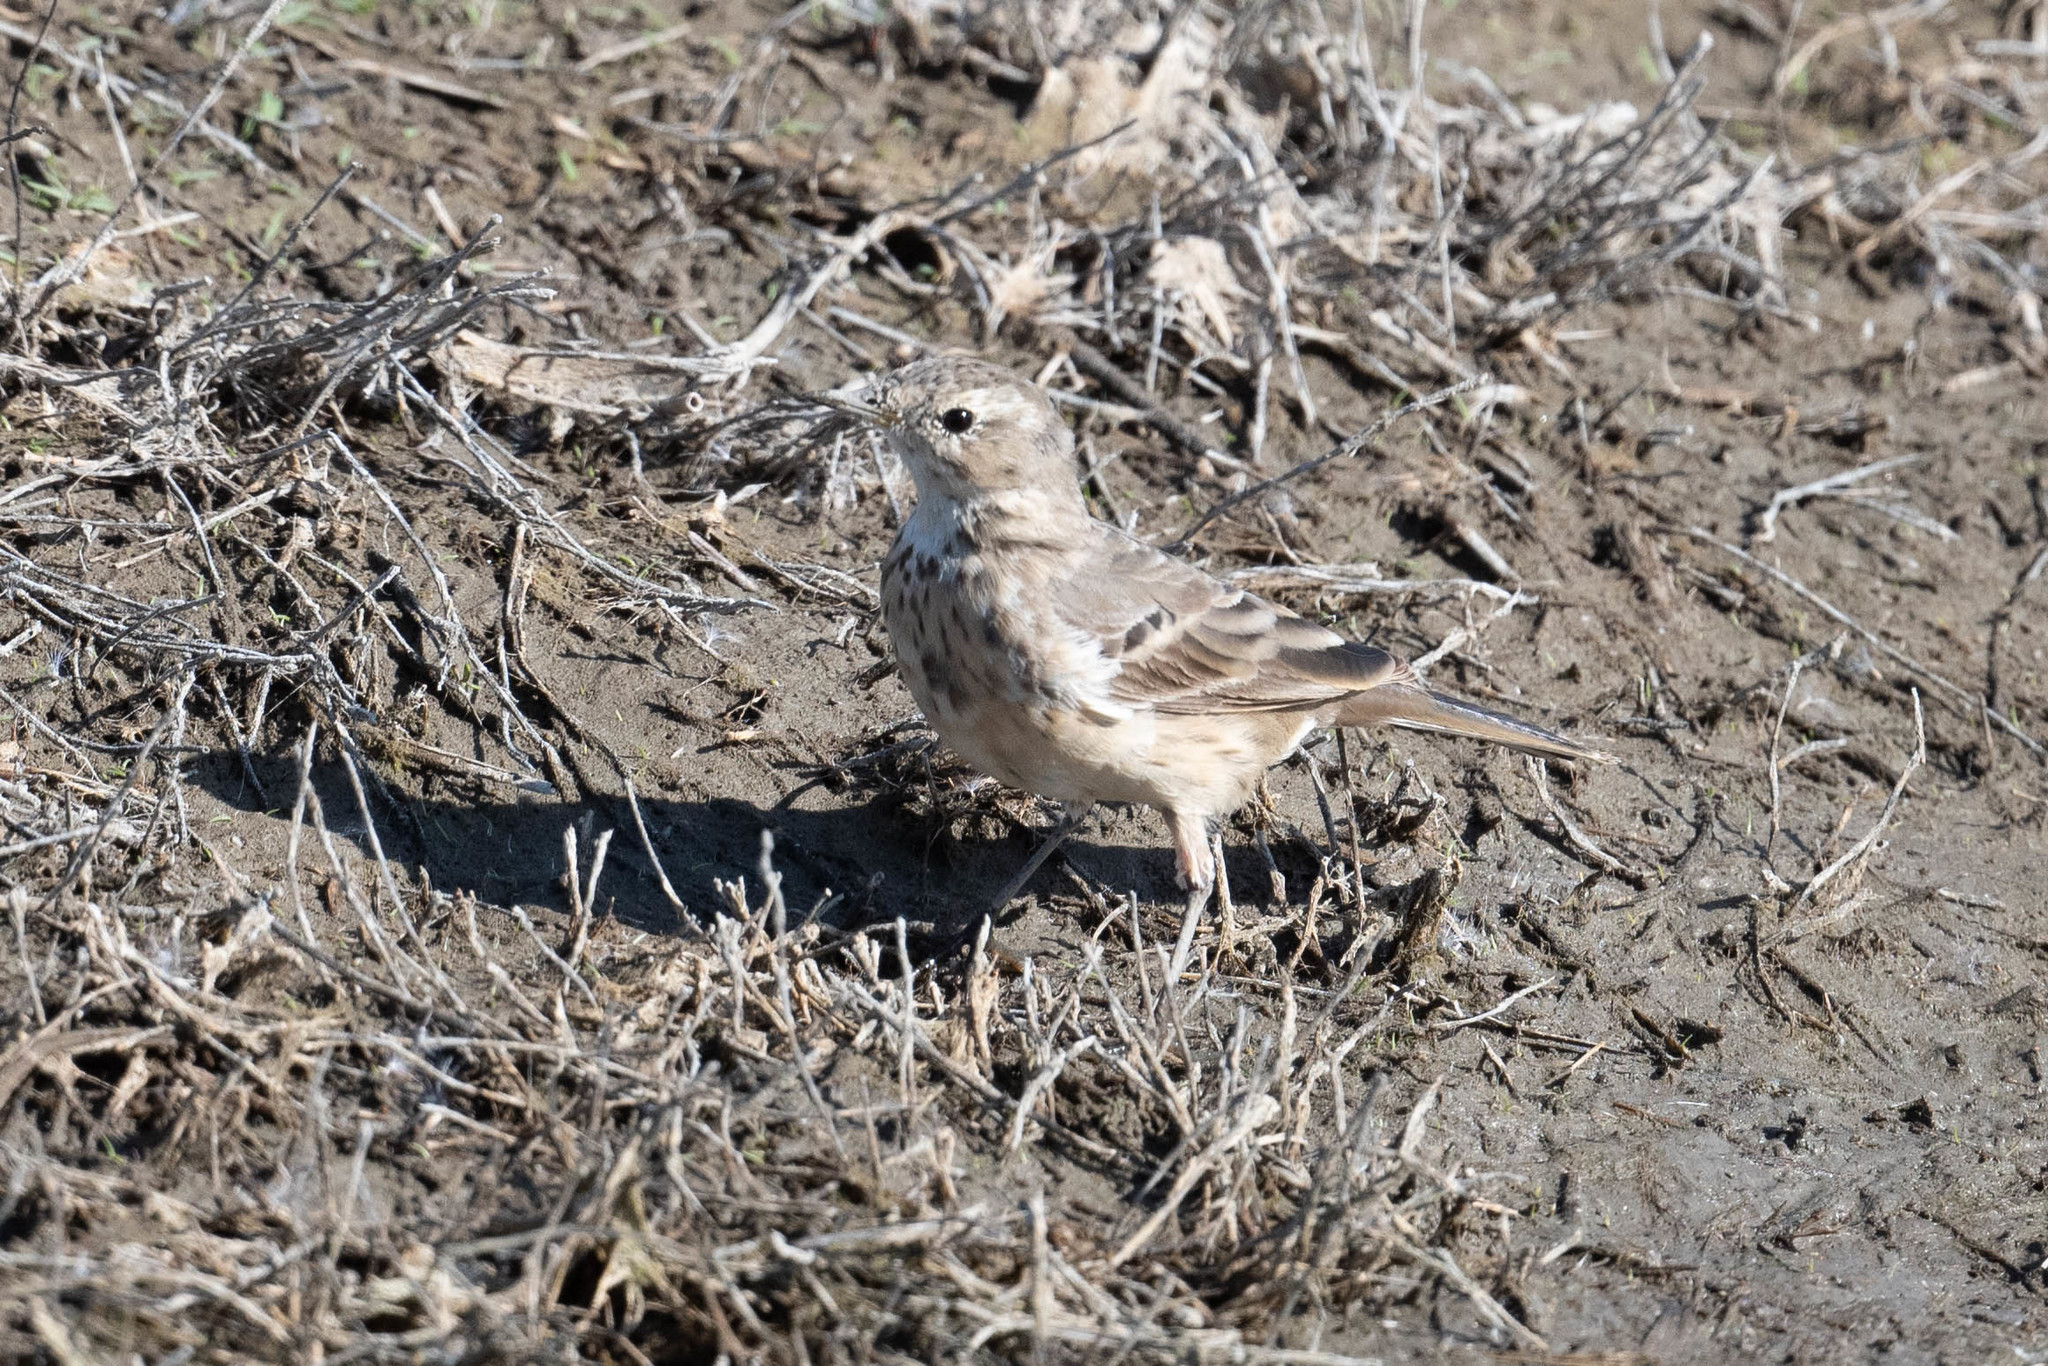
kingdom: Animalia
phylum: Chordata
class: Aves
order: Passeriformes
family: Motacillidae
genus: Anthus
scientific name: Anthus rubescens
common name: Buff-bellied pipit
